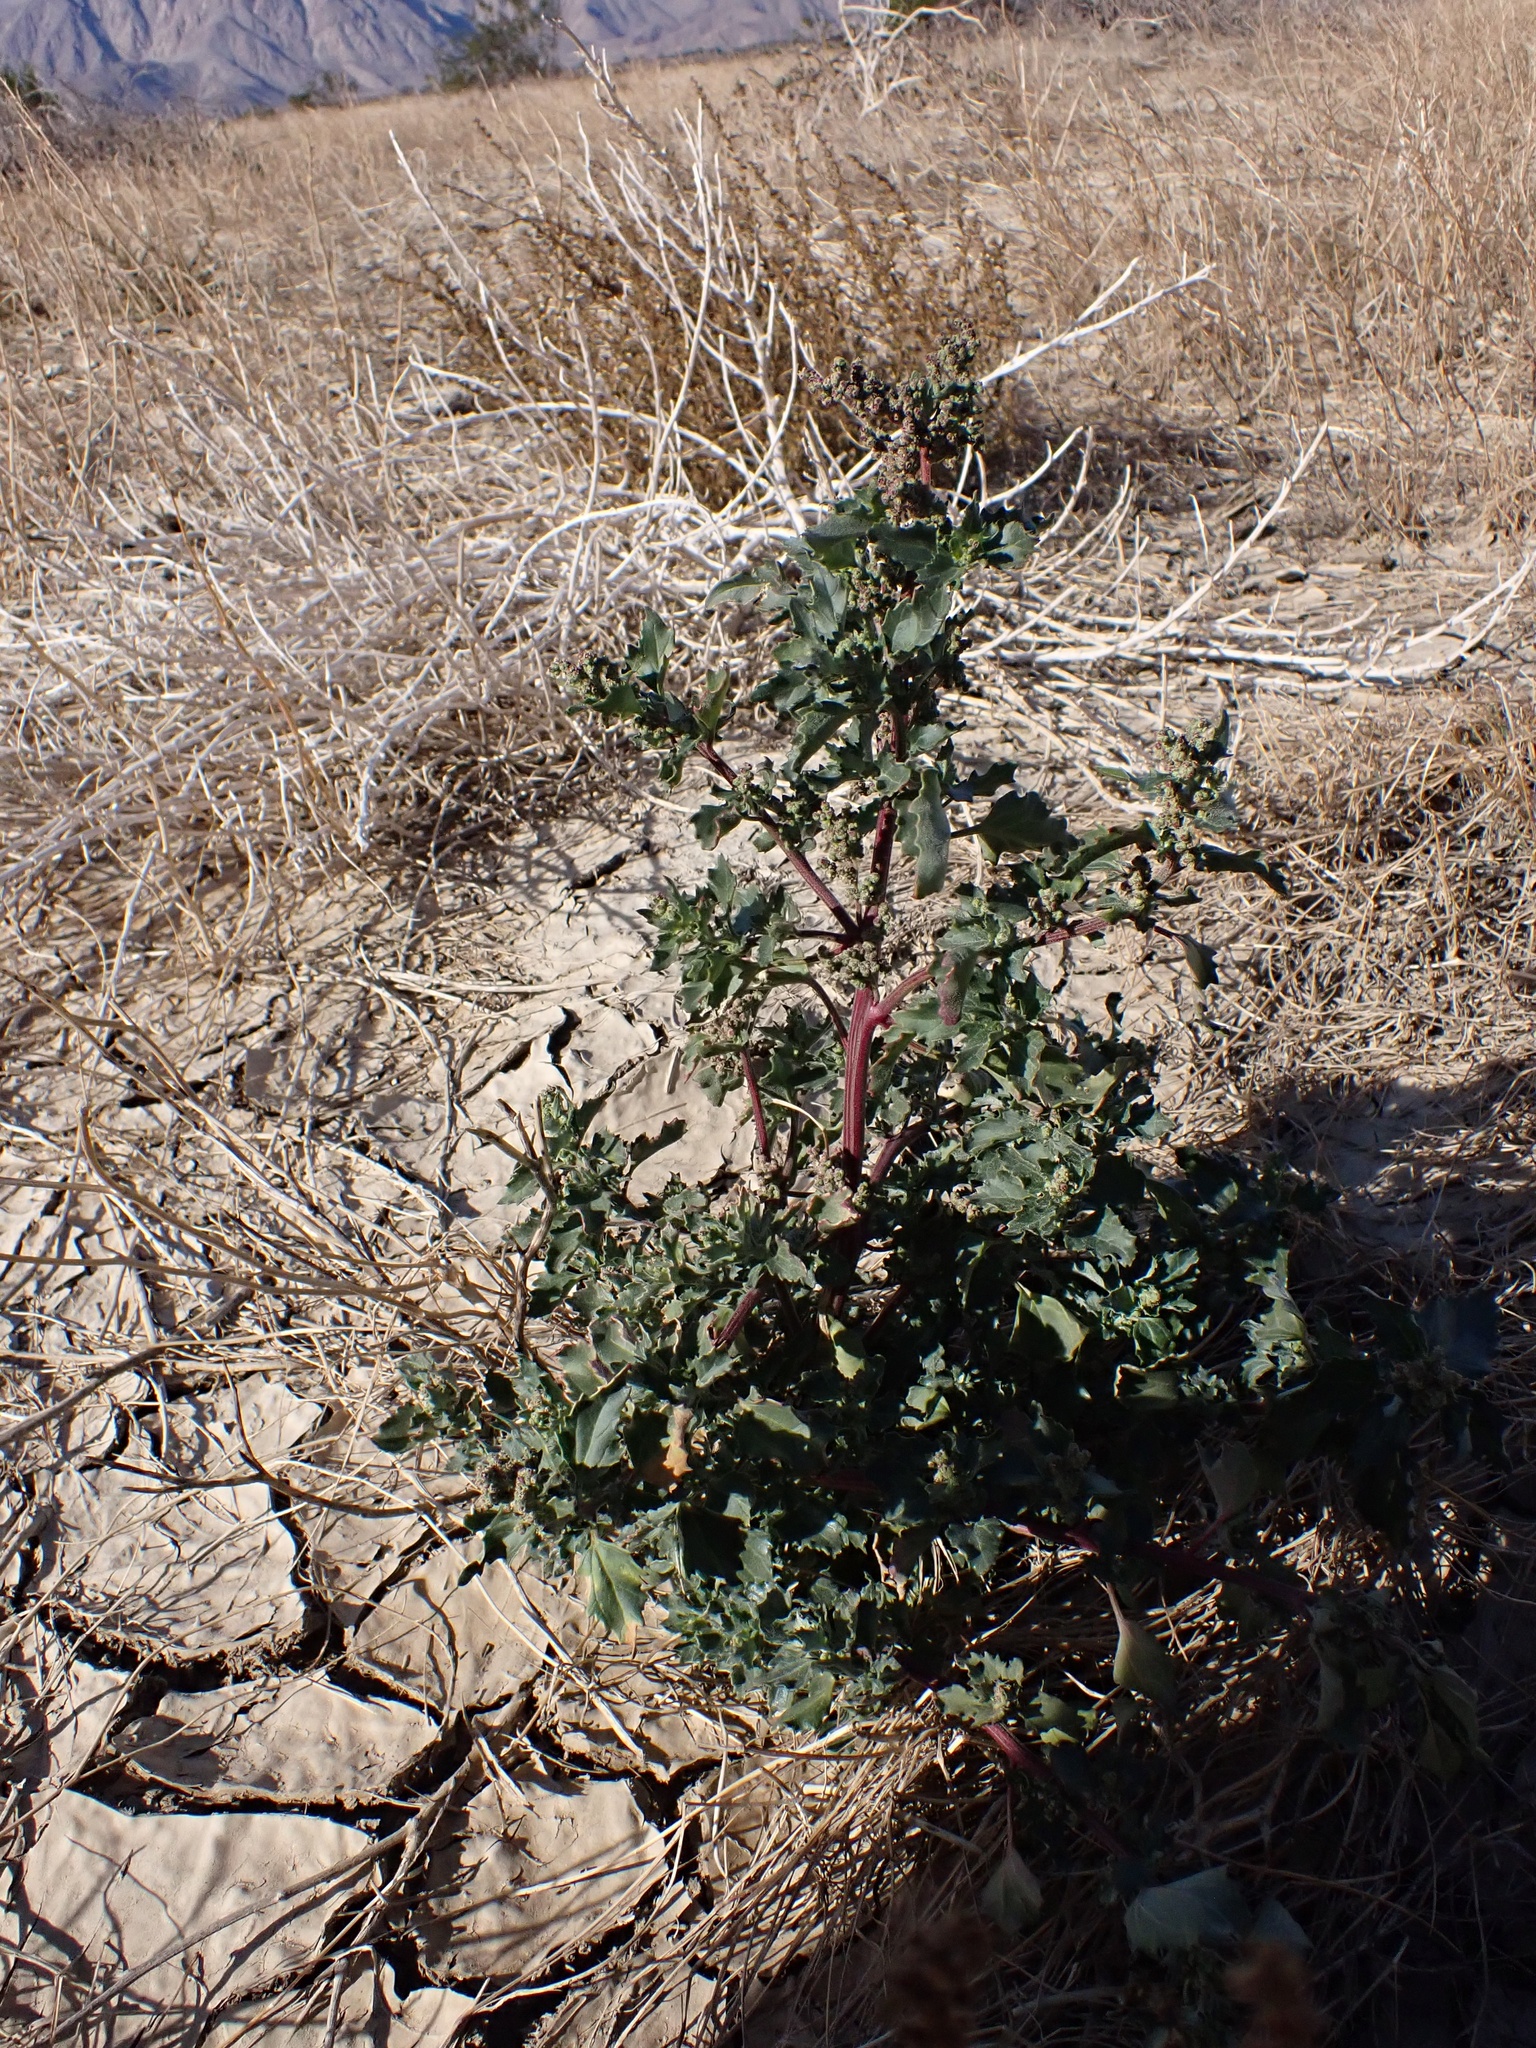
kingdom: Plantae
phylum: Tracheophyta
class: Magnoliopsida
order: Caryophyllales
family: Amaranthaceae
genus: Chenopodiastrum
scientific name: Chenopodiastrum murale
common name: Sowbane
